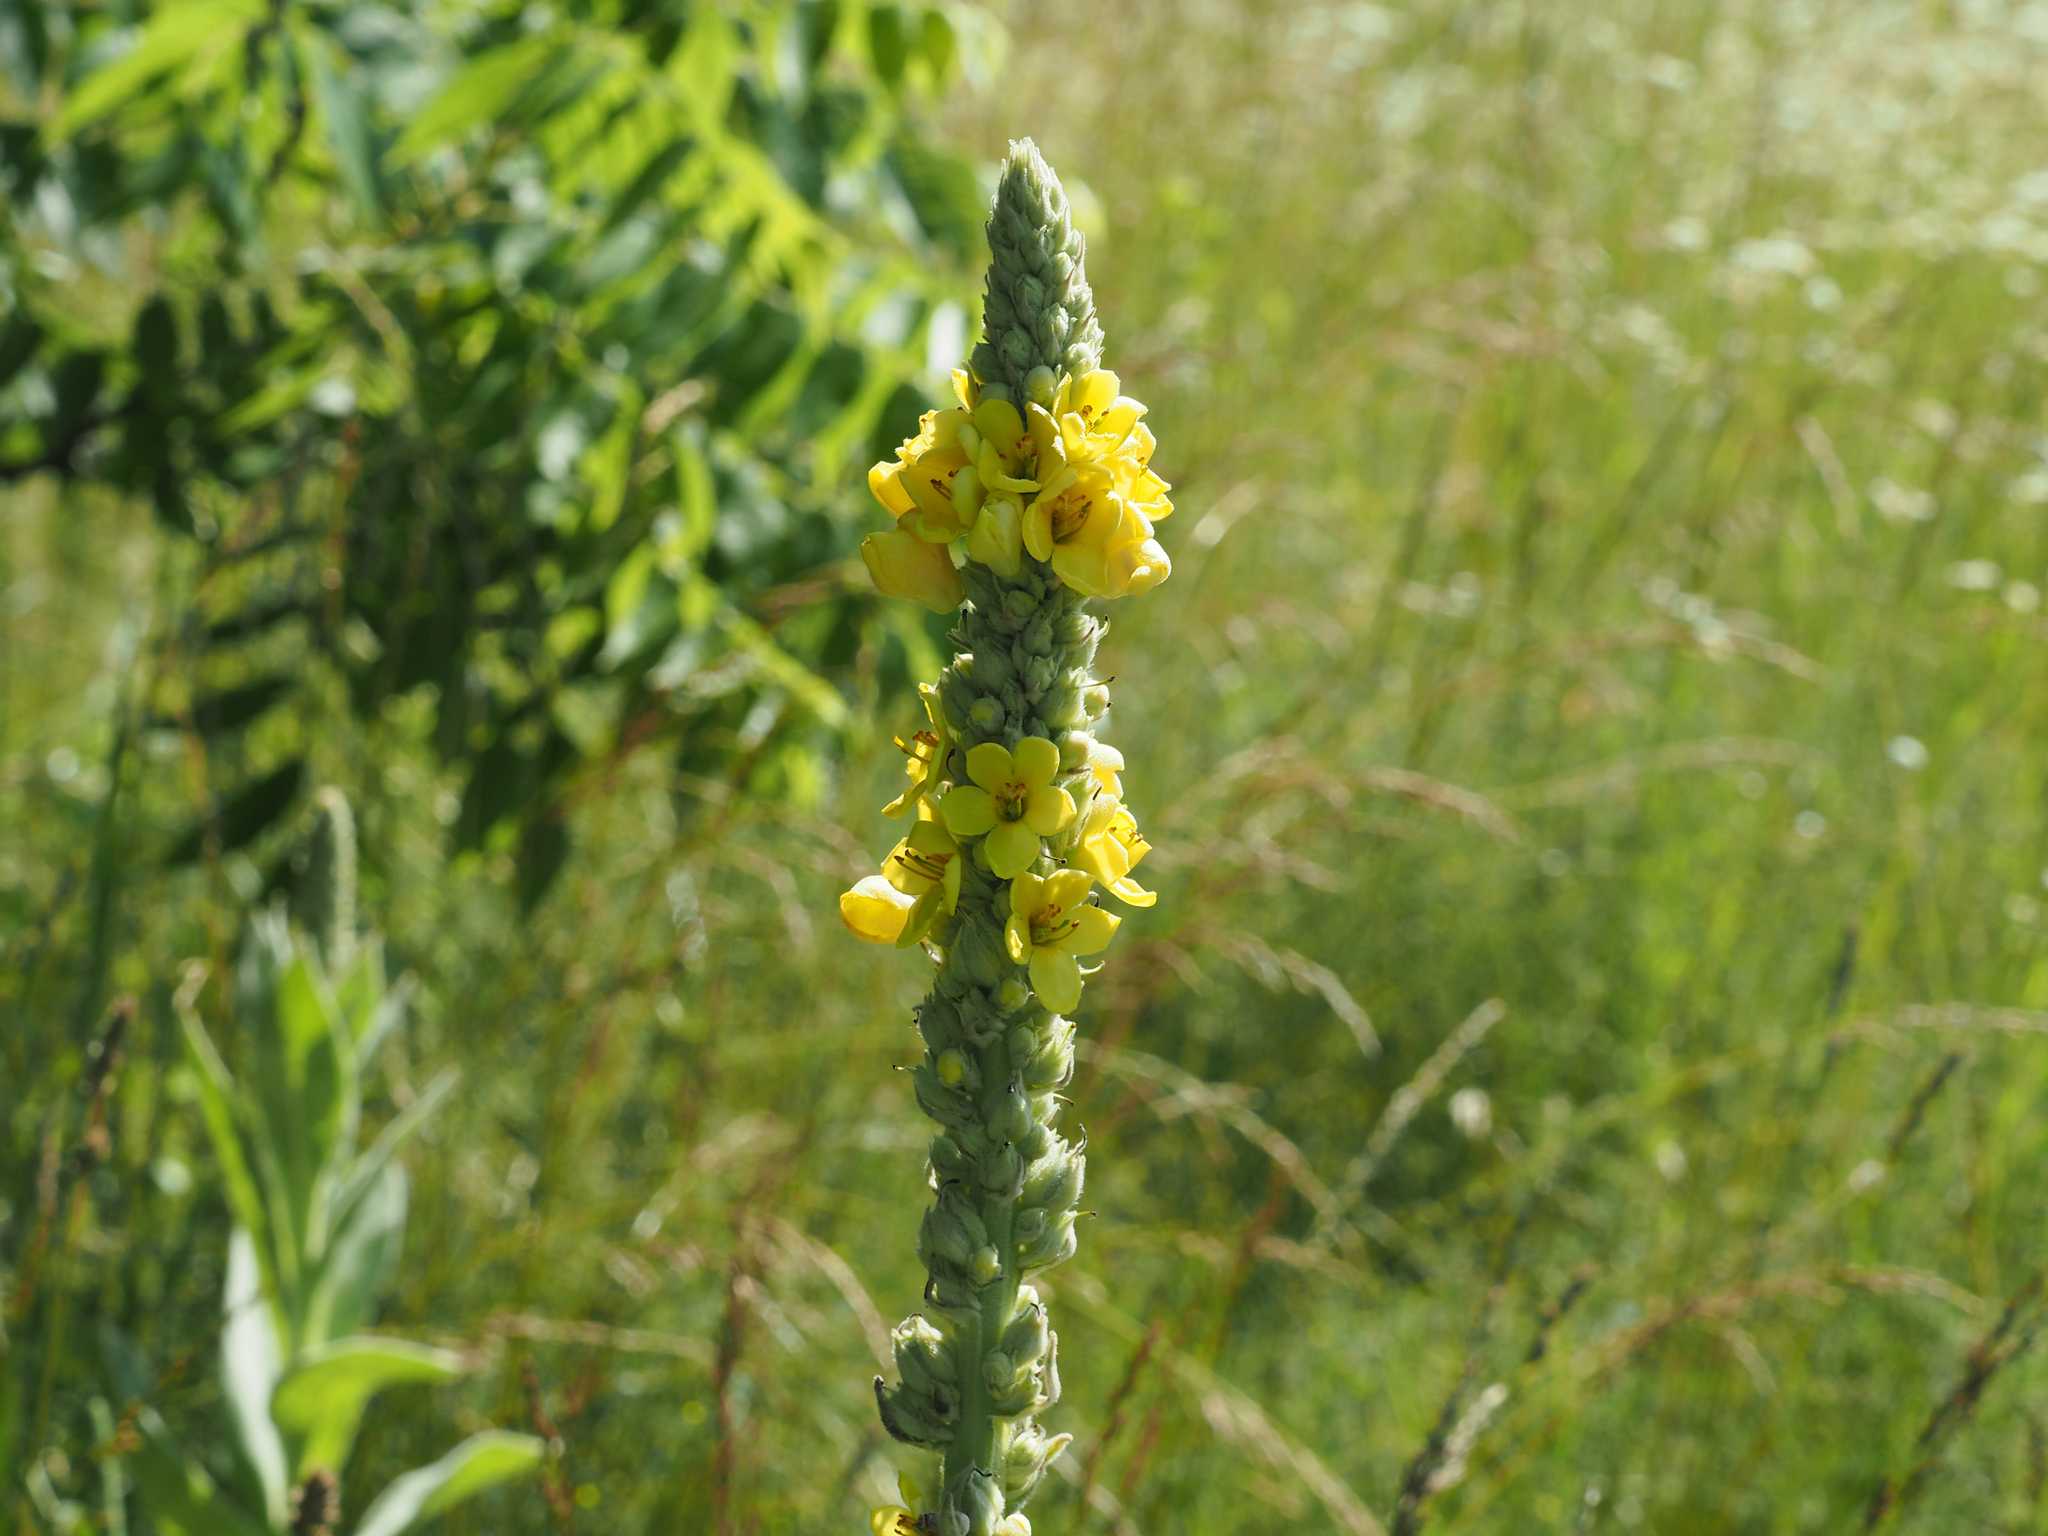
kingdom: Plantae
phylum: Tracheophyta
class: Magnoliopsida
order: Lamiales
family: Scrophulariaceae
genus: Verbascum
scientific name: Verbascum thapsus
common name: Common mullein
